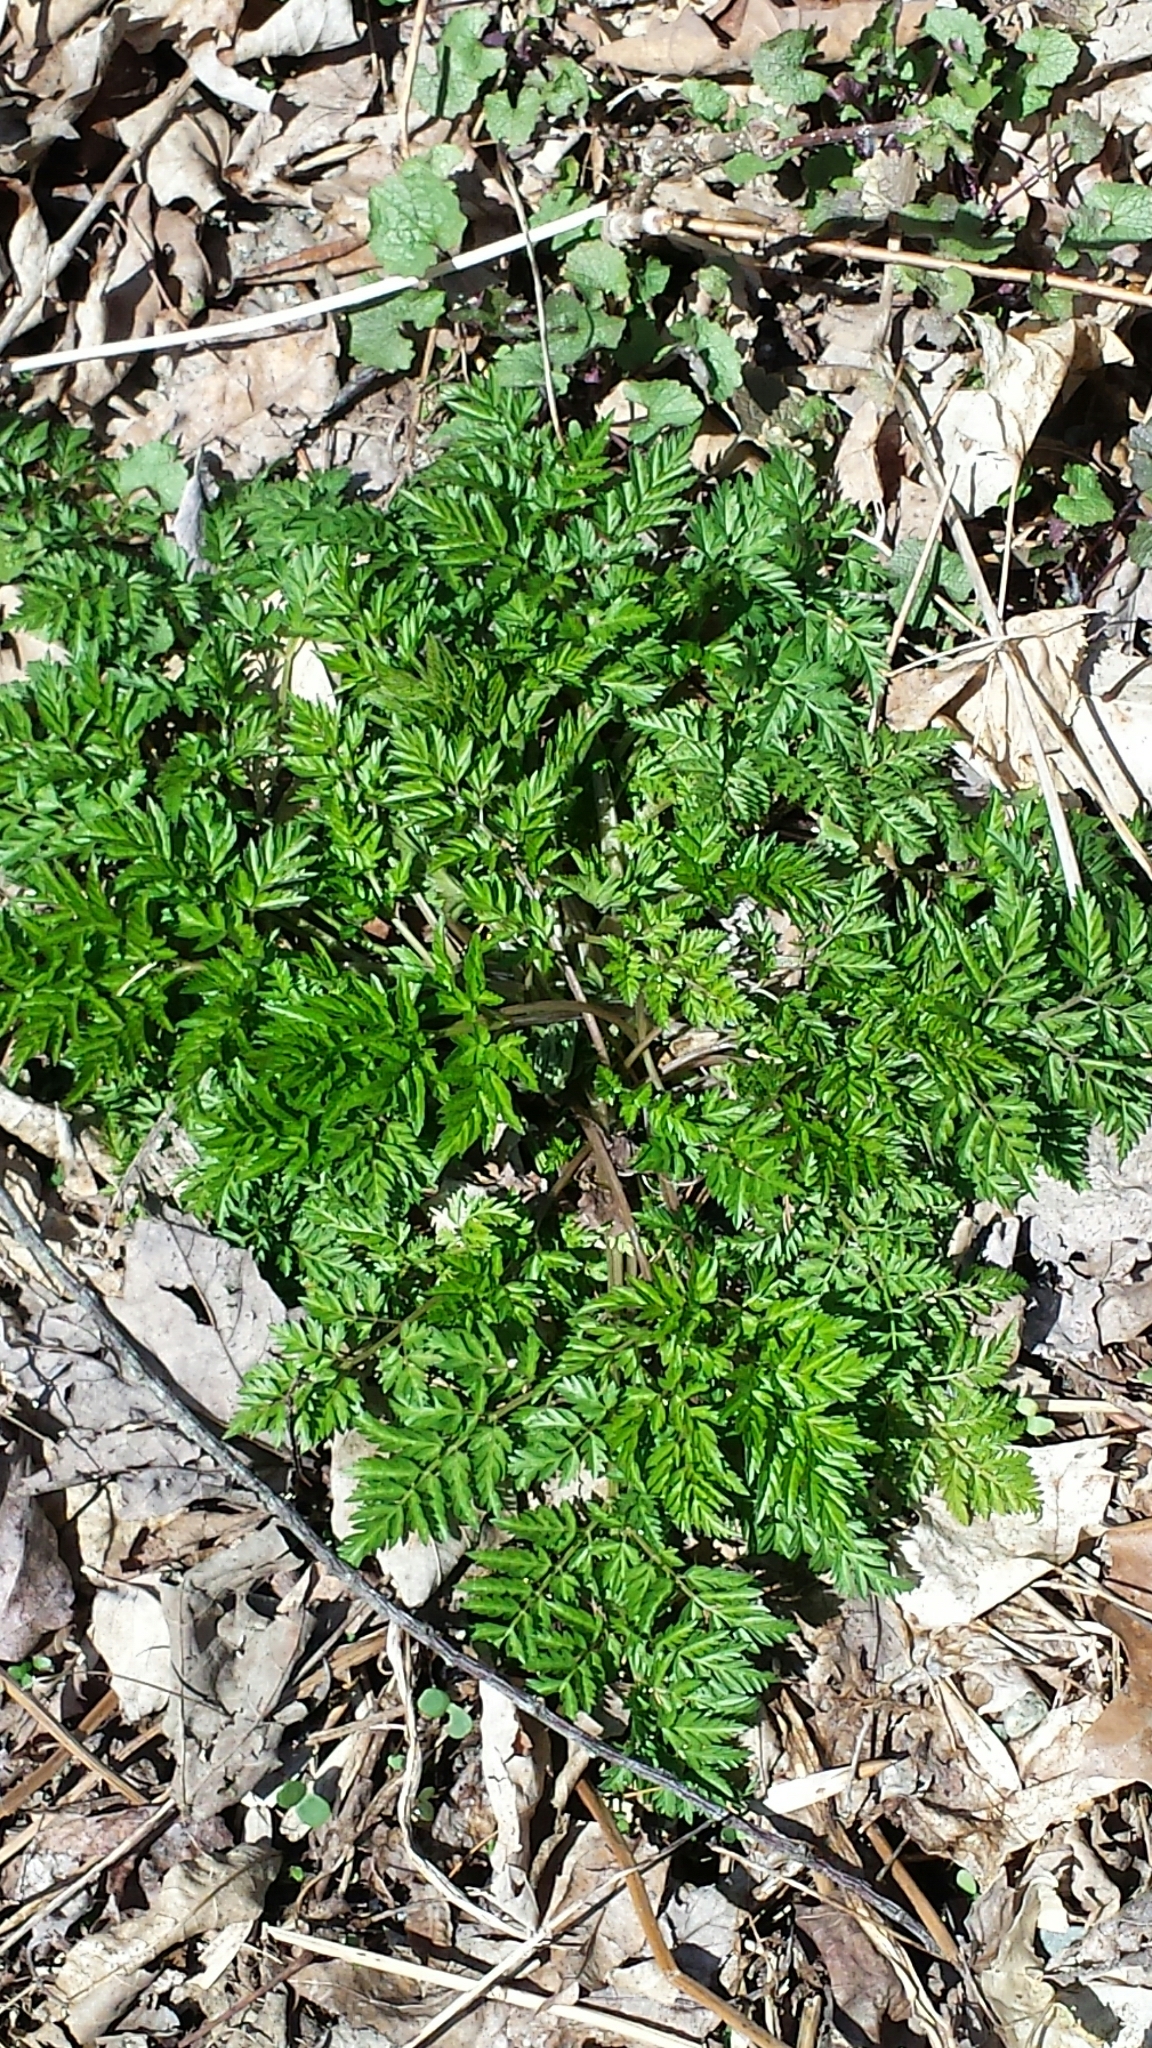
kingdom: Plantae
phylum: Tracheophyta
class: Magnoliopsida
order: Apiales
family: Apiaceae
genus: Anthriscus
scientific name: Anthriscus sylvestris
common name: Cow parsley
